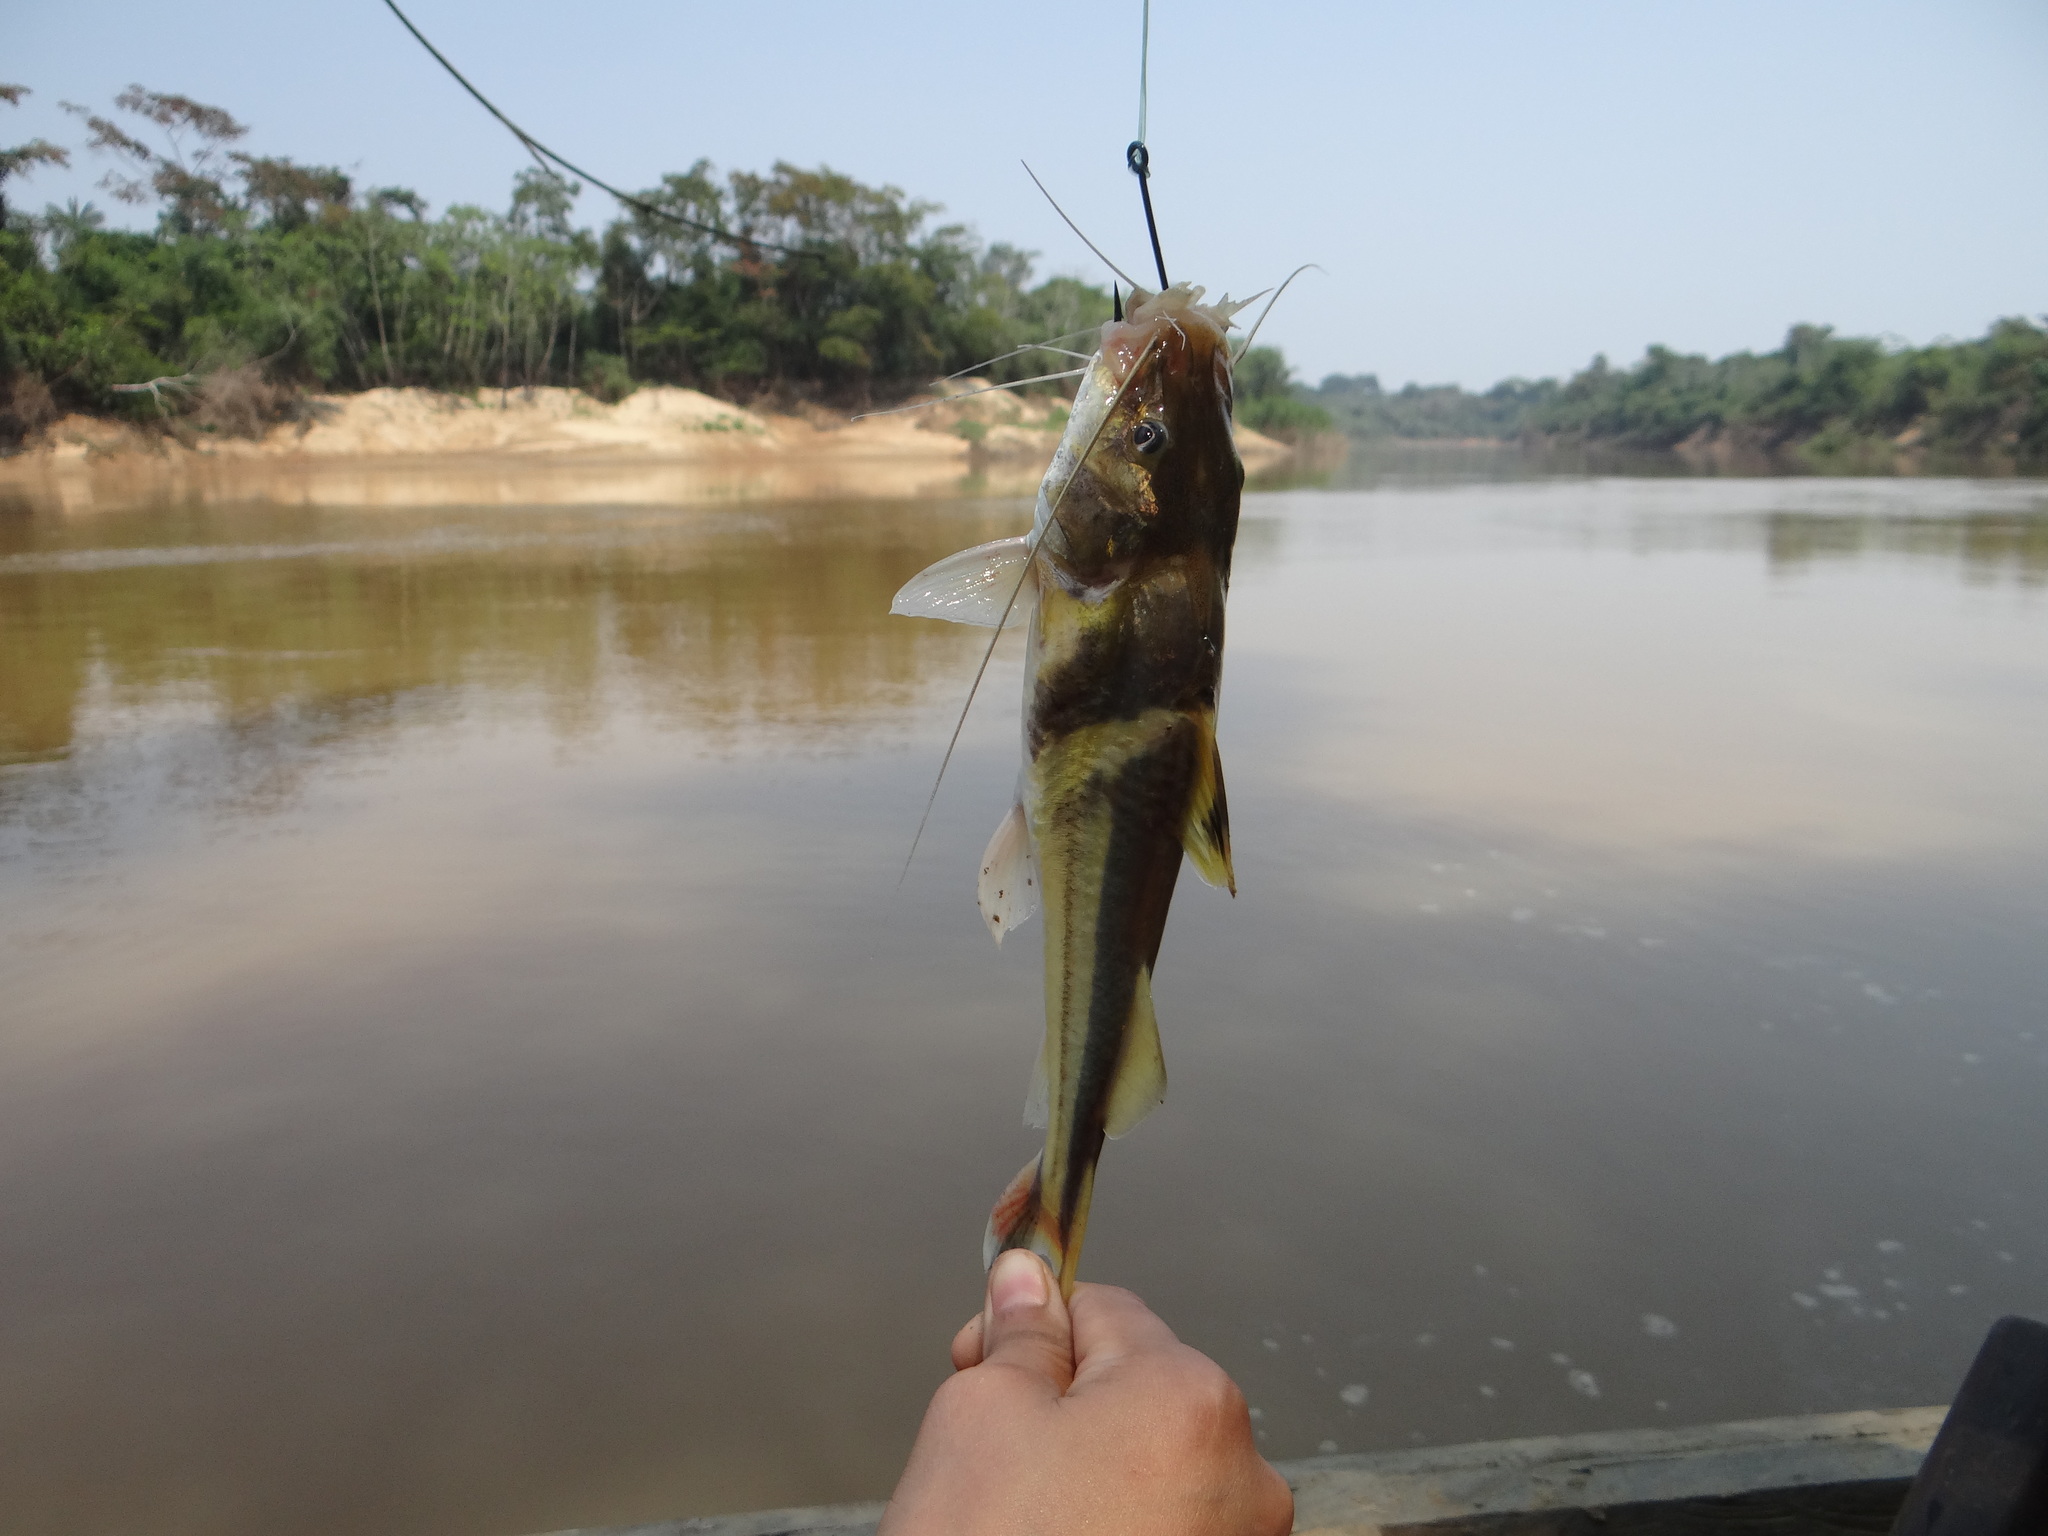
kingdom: Animalia
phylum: Chordata
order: Siluriformes
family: Pimelodidae
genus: Pimelodus
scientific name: Pimelodus ornatus
